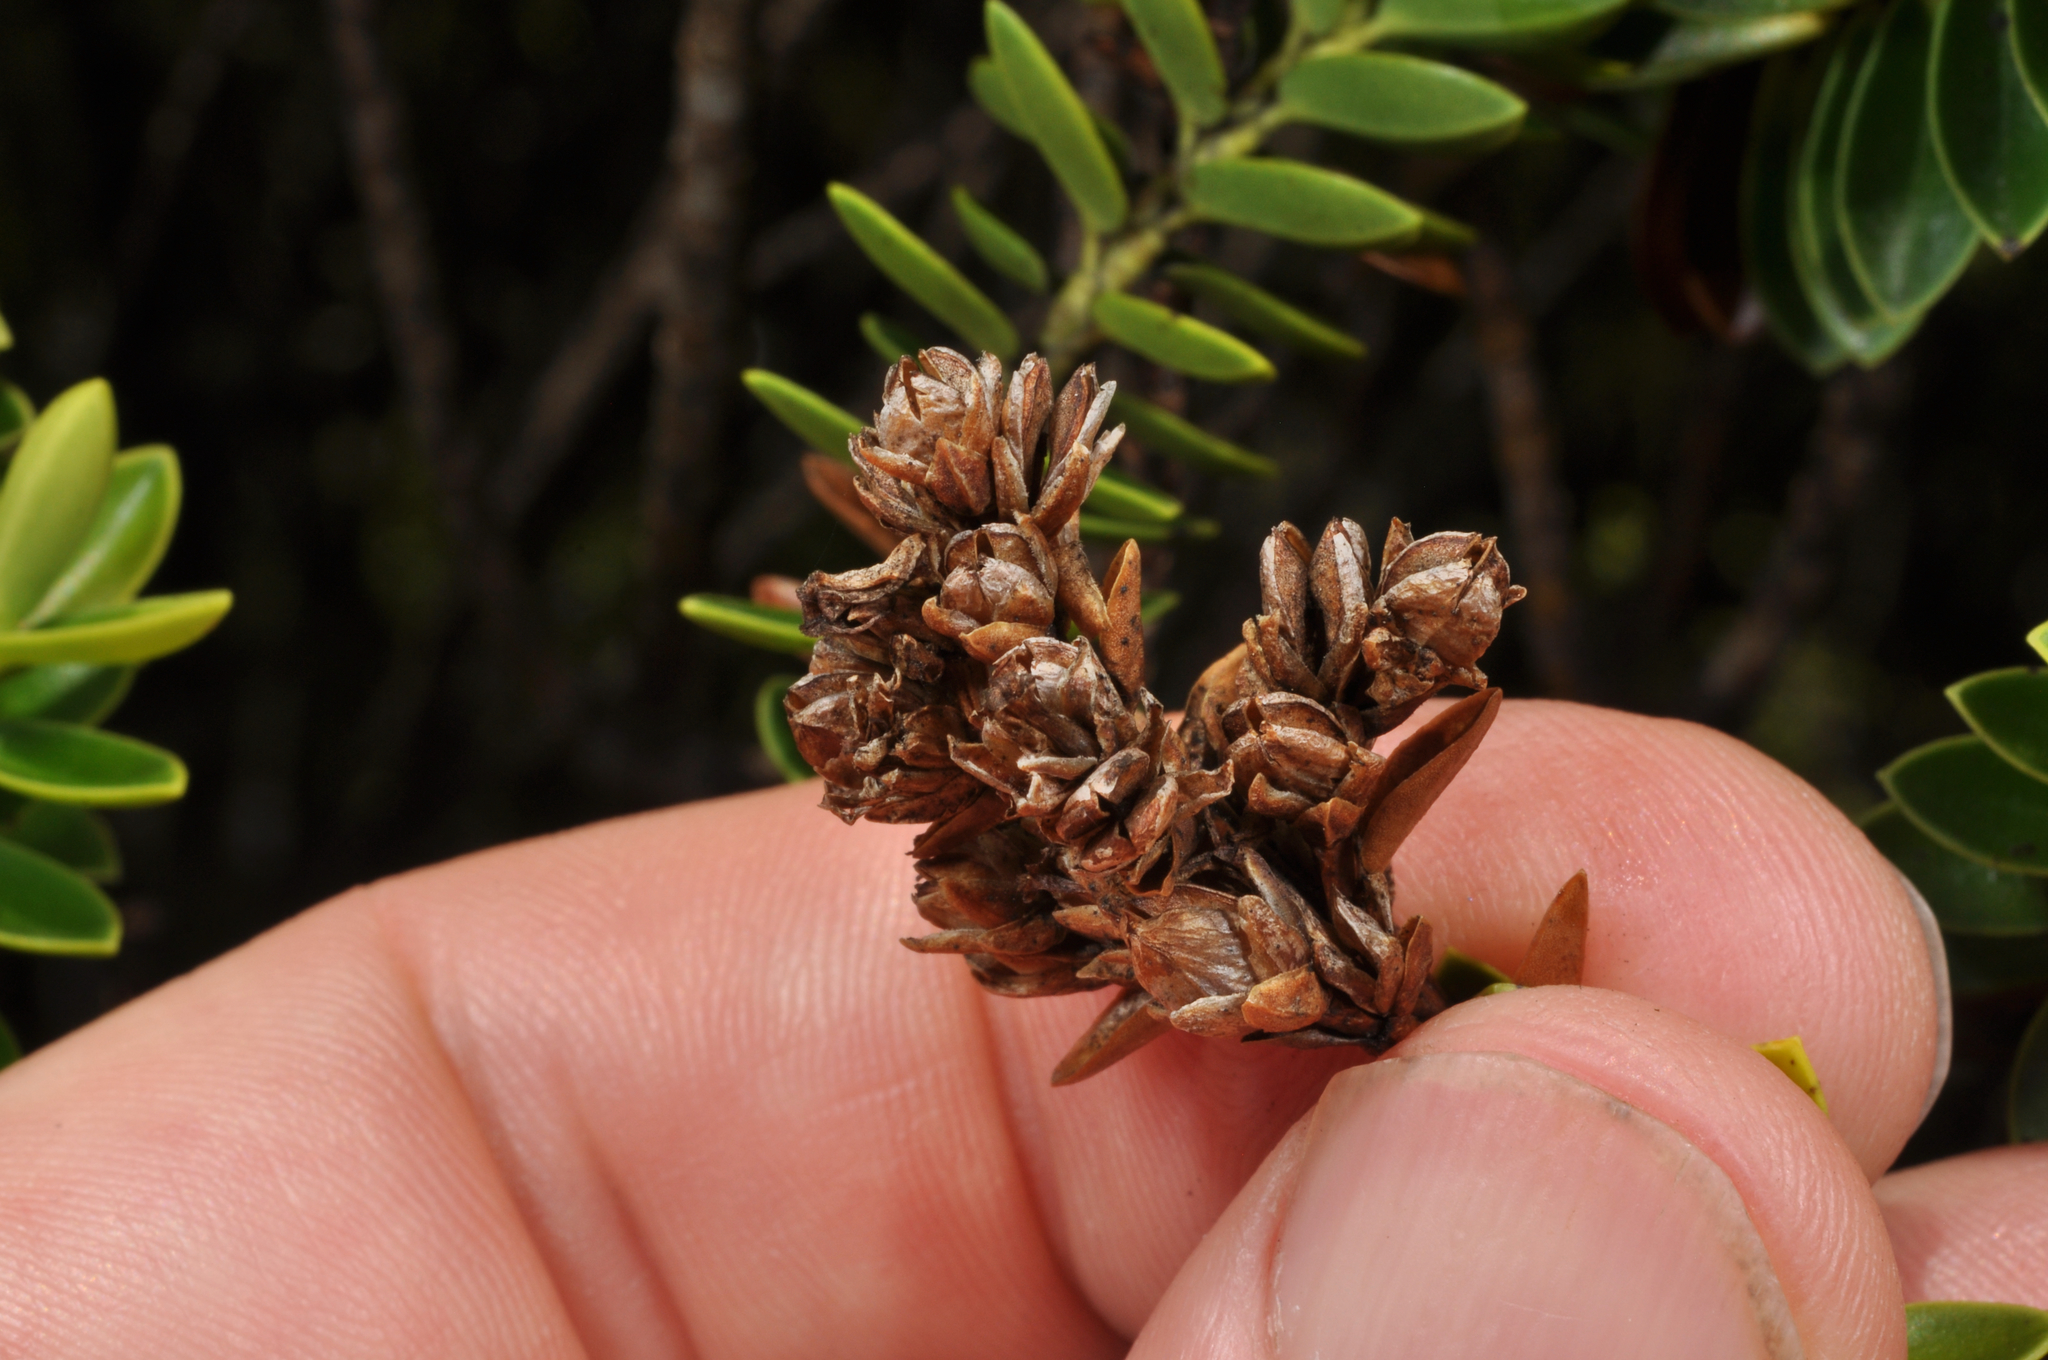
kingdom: Plantae
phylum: Tracheophyta
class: Magnoliopsida
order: Lamiales
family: Plantaginaceae
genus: Veronica
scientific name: Veronica odora
